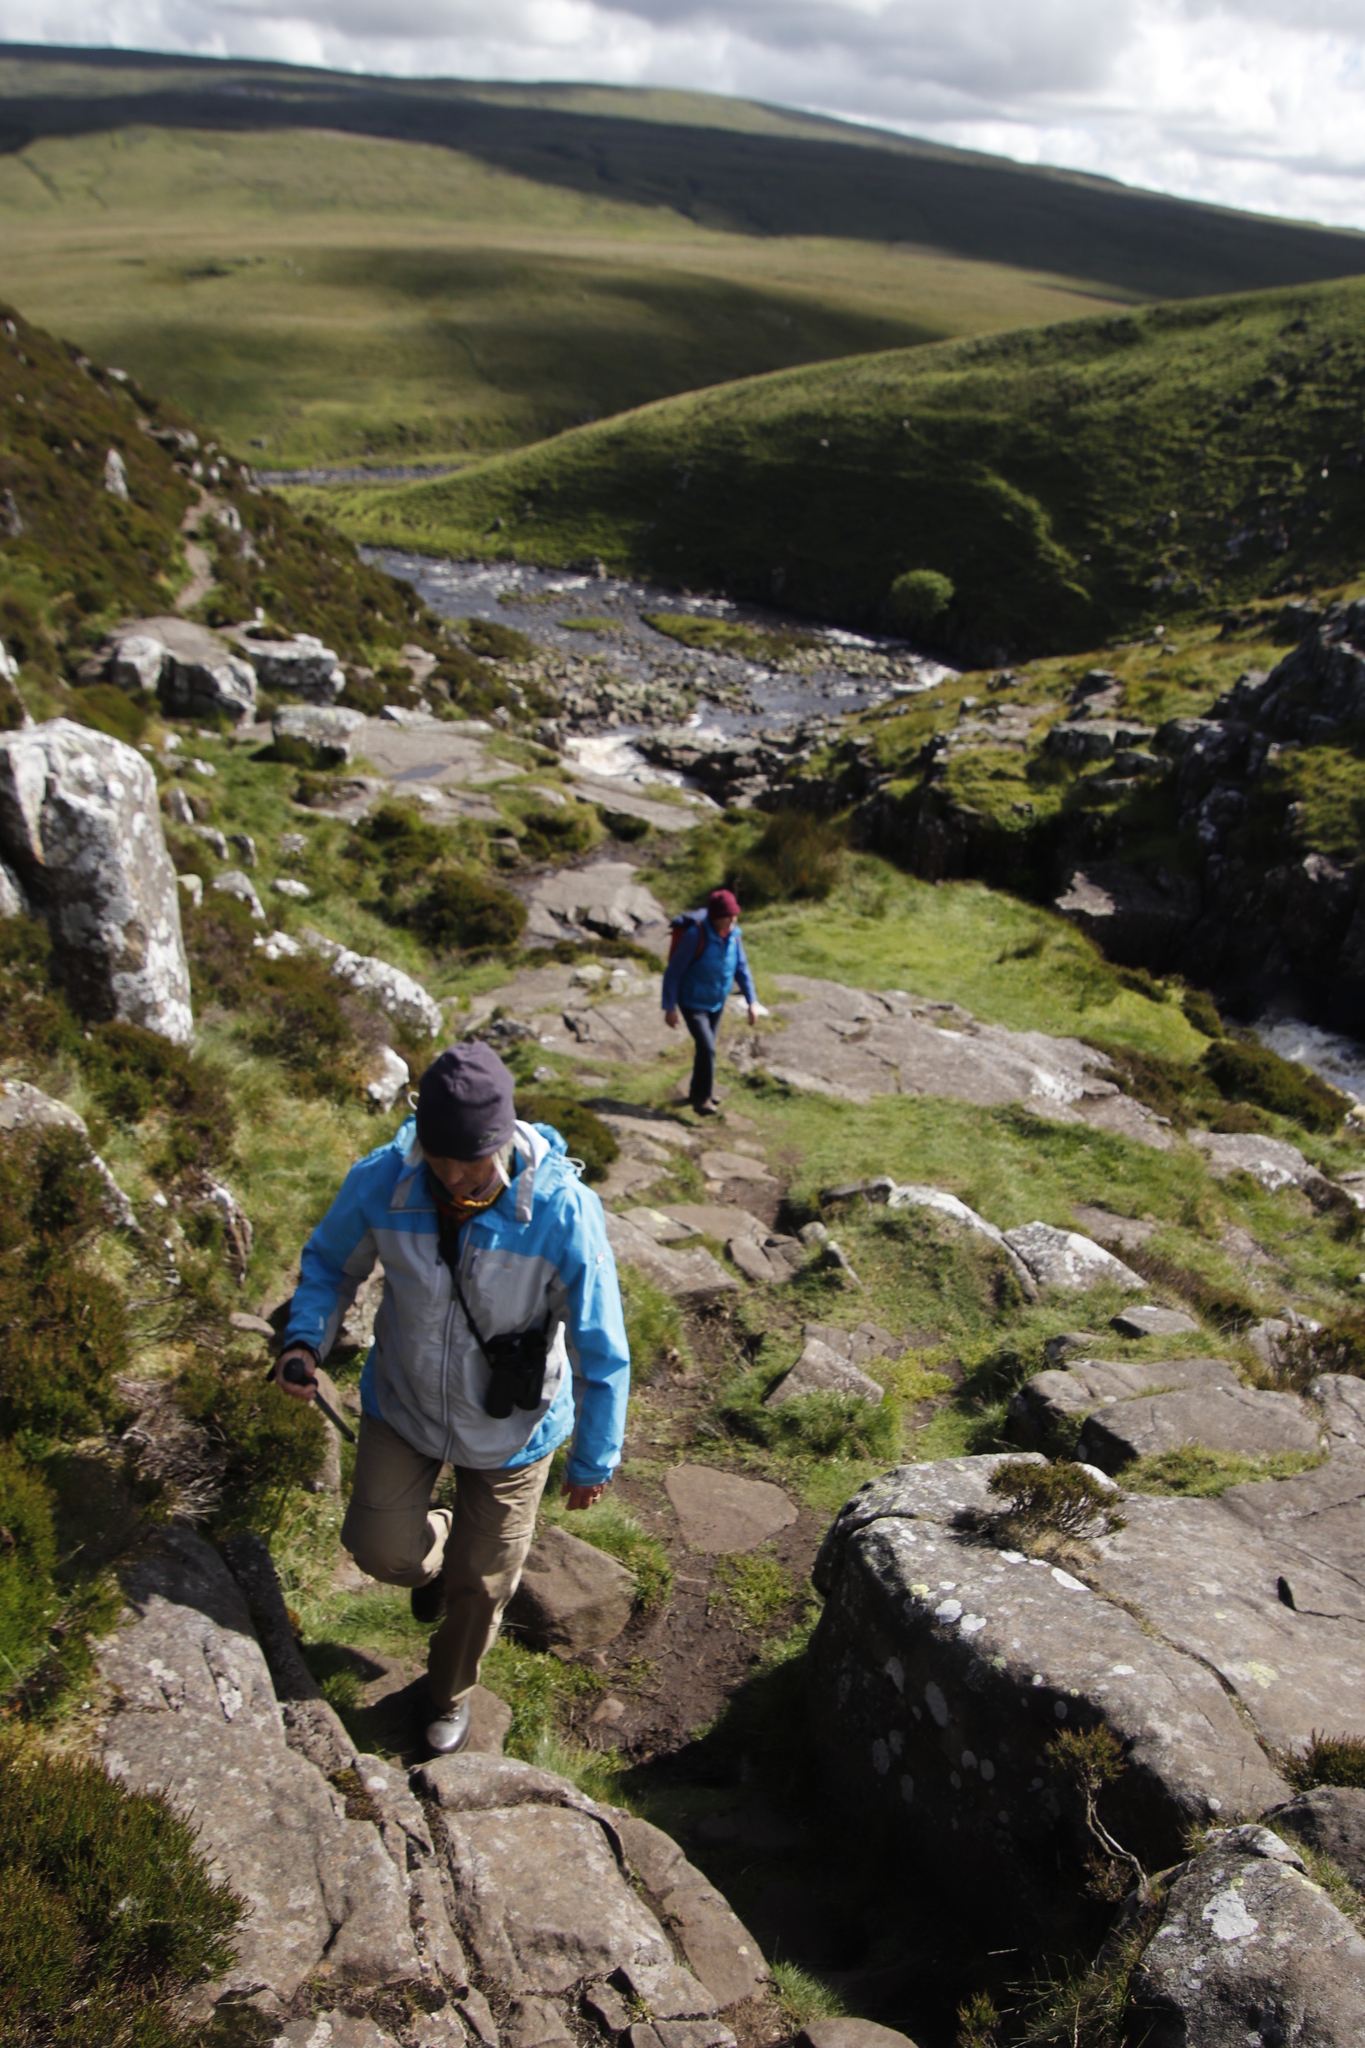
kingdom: Plantae
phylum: Tracheophyta
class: Magnoliopsida
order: Ericales
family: Ericaceae
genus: Calluna
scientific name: Calluna vulgaris
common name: Heather
